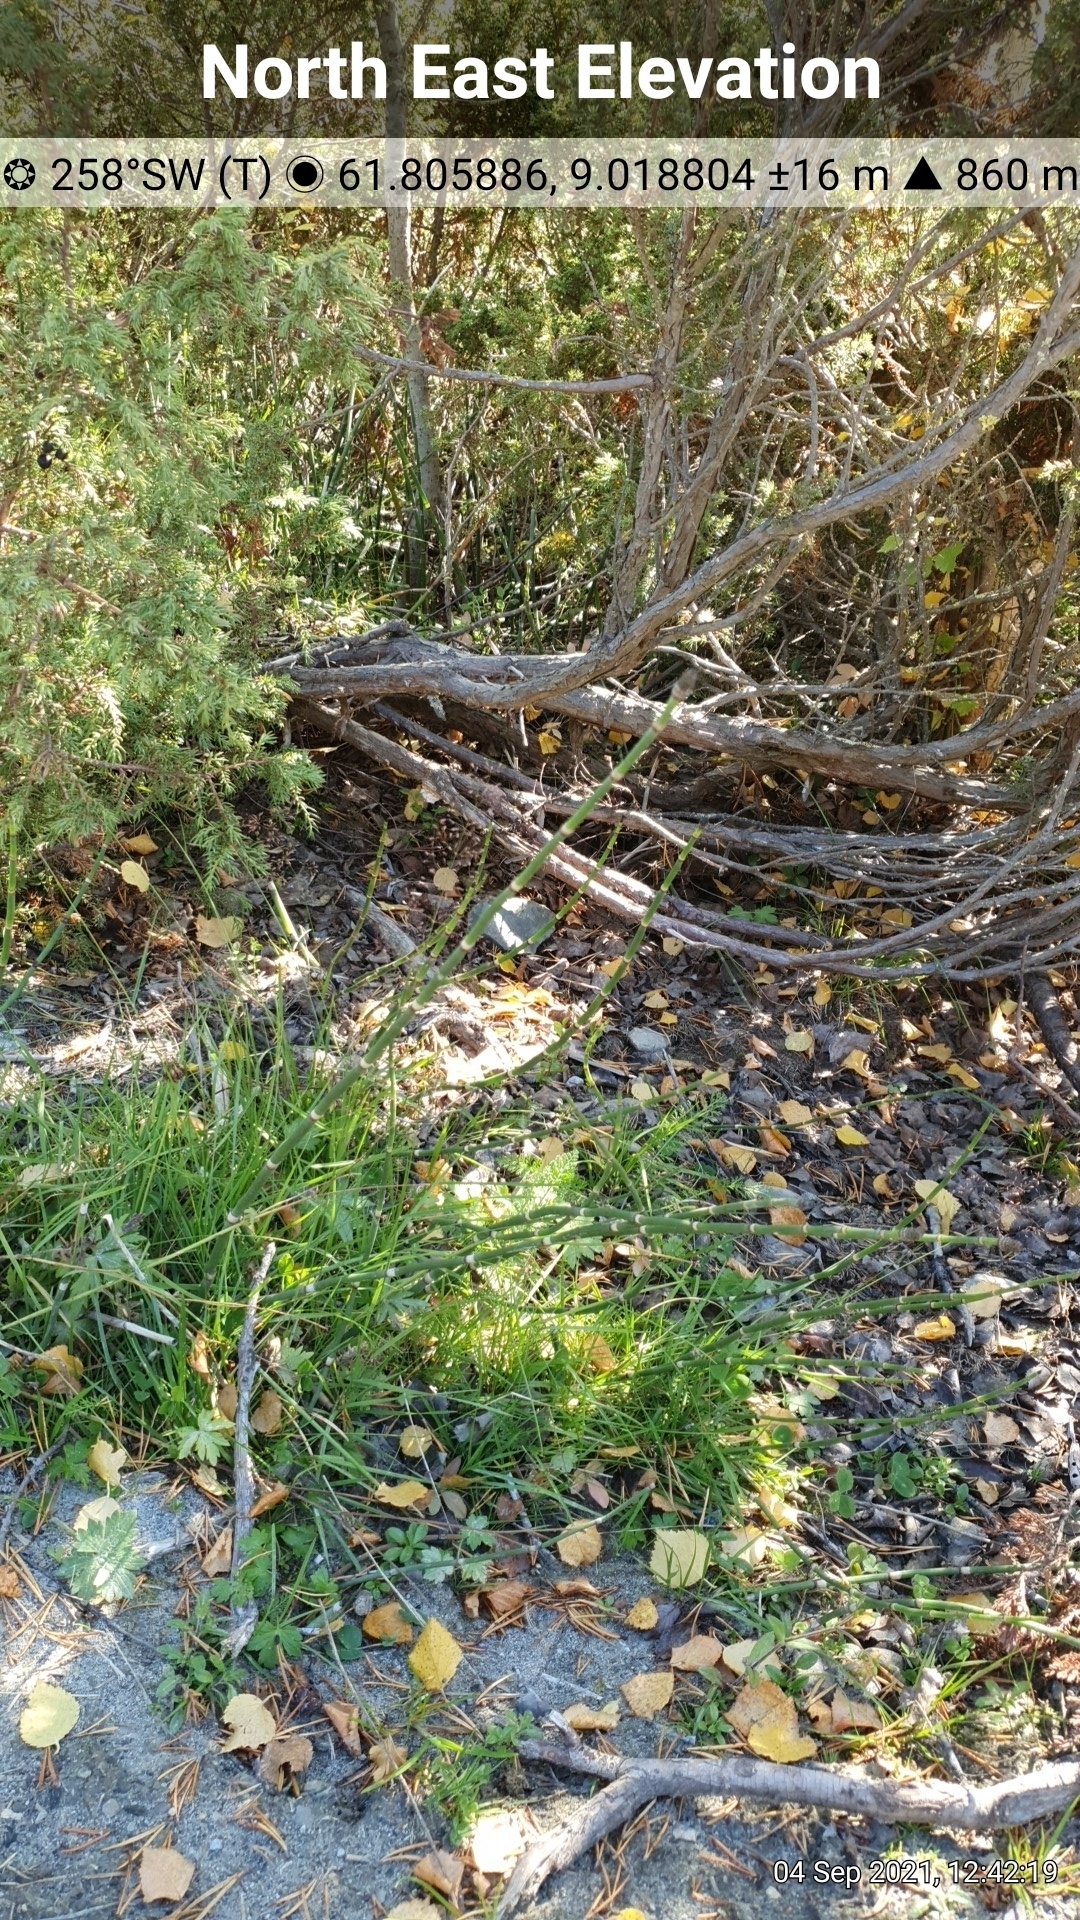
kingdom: Plantae
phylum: Tracheophyta
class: Polypodiopsida
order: Equisetales
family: Equisetaceae
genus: Equisetum
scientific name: Equisetum hyemale
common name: Rough horsetail
